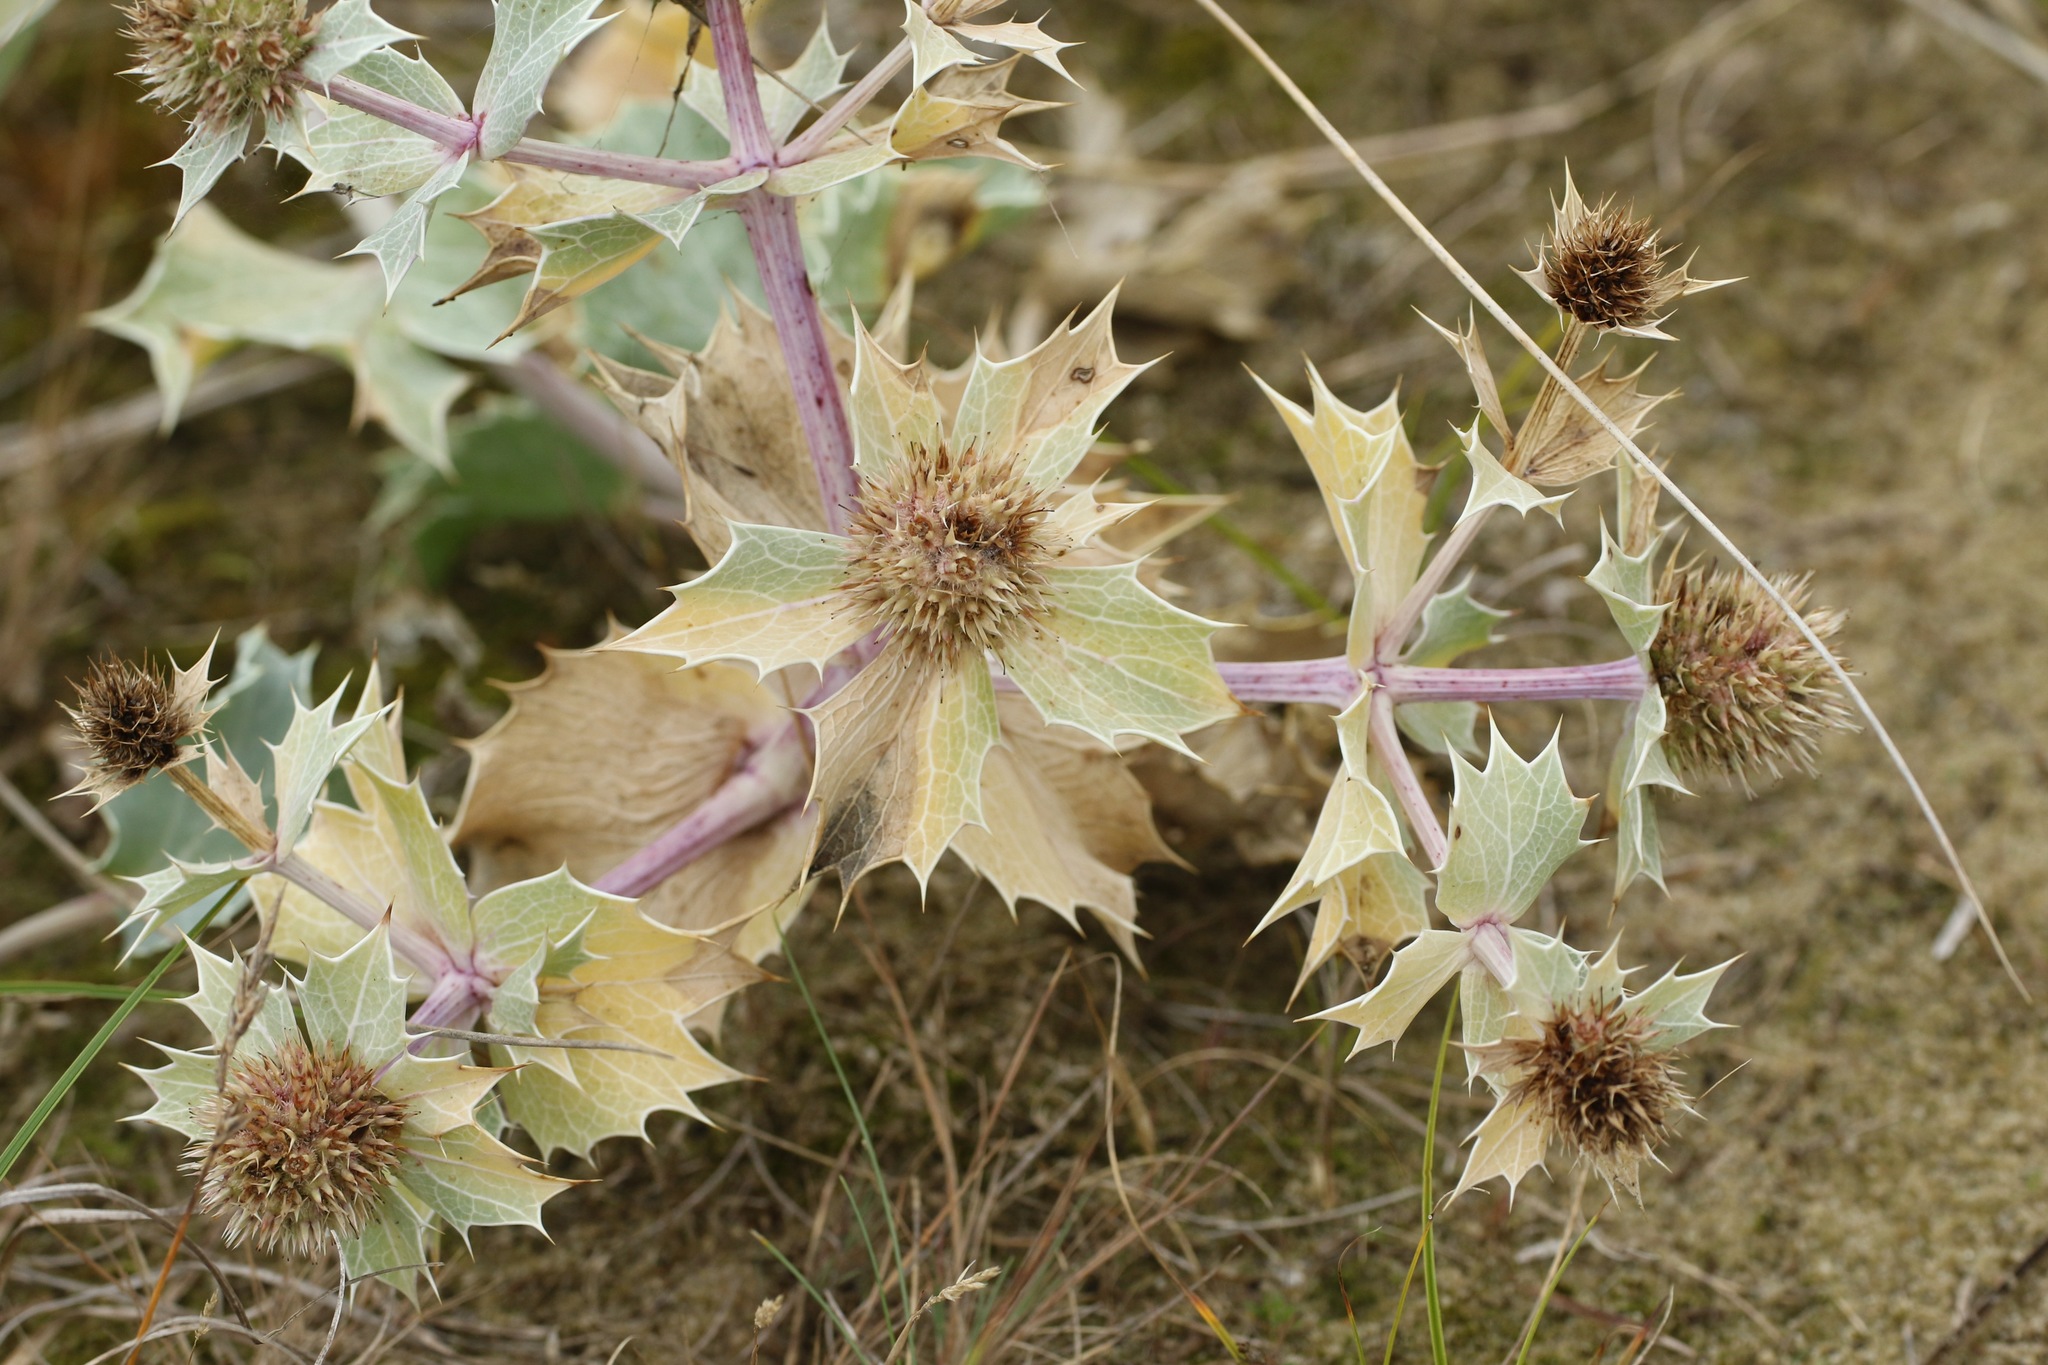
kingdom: Plantae
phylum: Tracheophyta
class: Magnoliopsida
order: Apiales
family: Apiaceae
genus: Eryngium
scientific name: Eryngium maritimum
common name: Sea-holly
